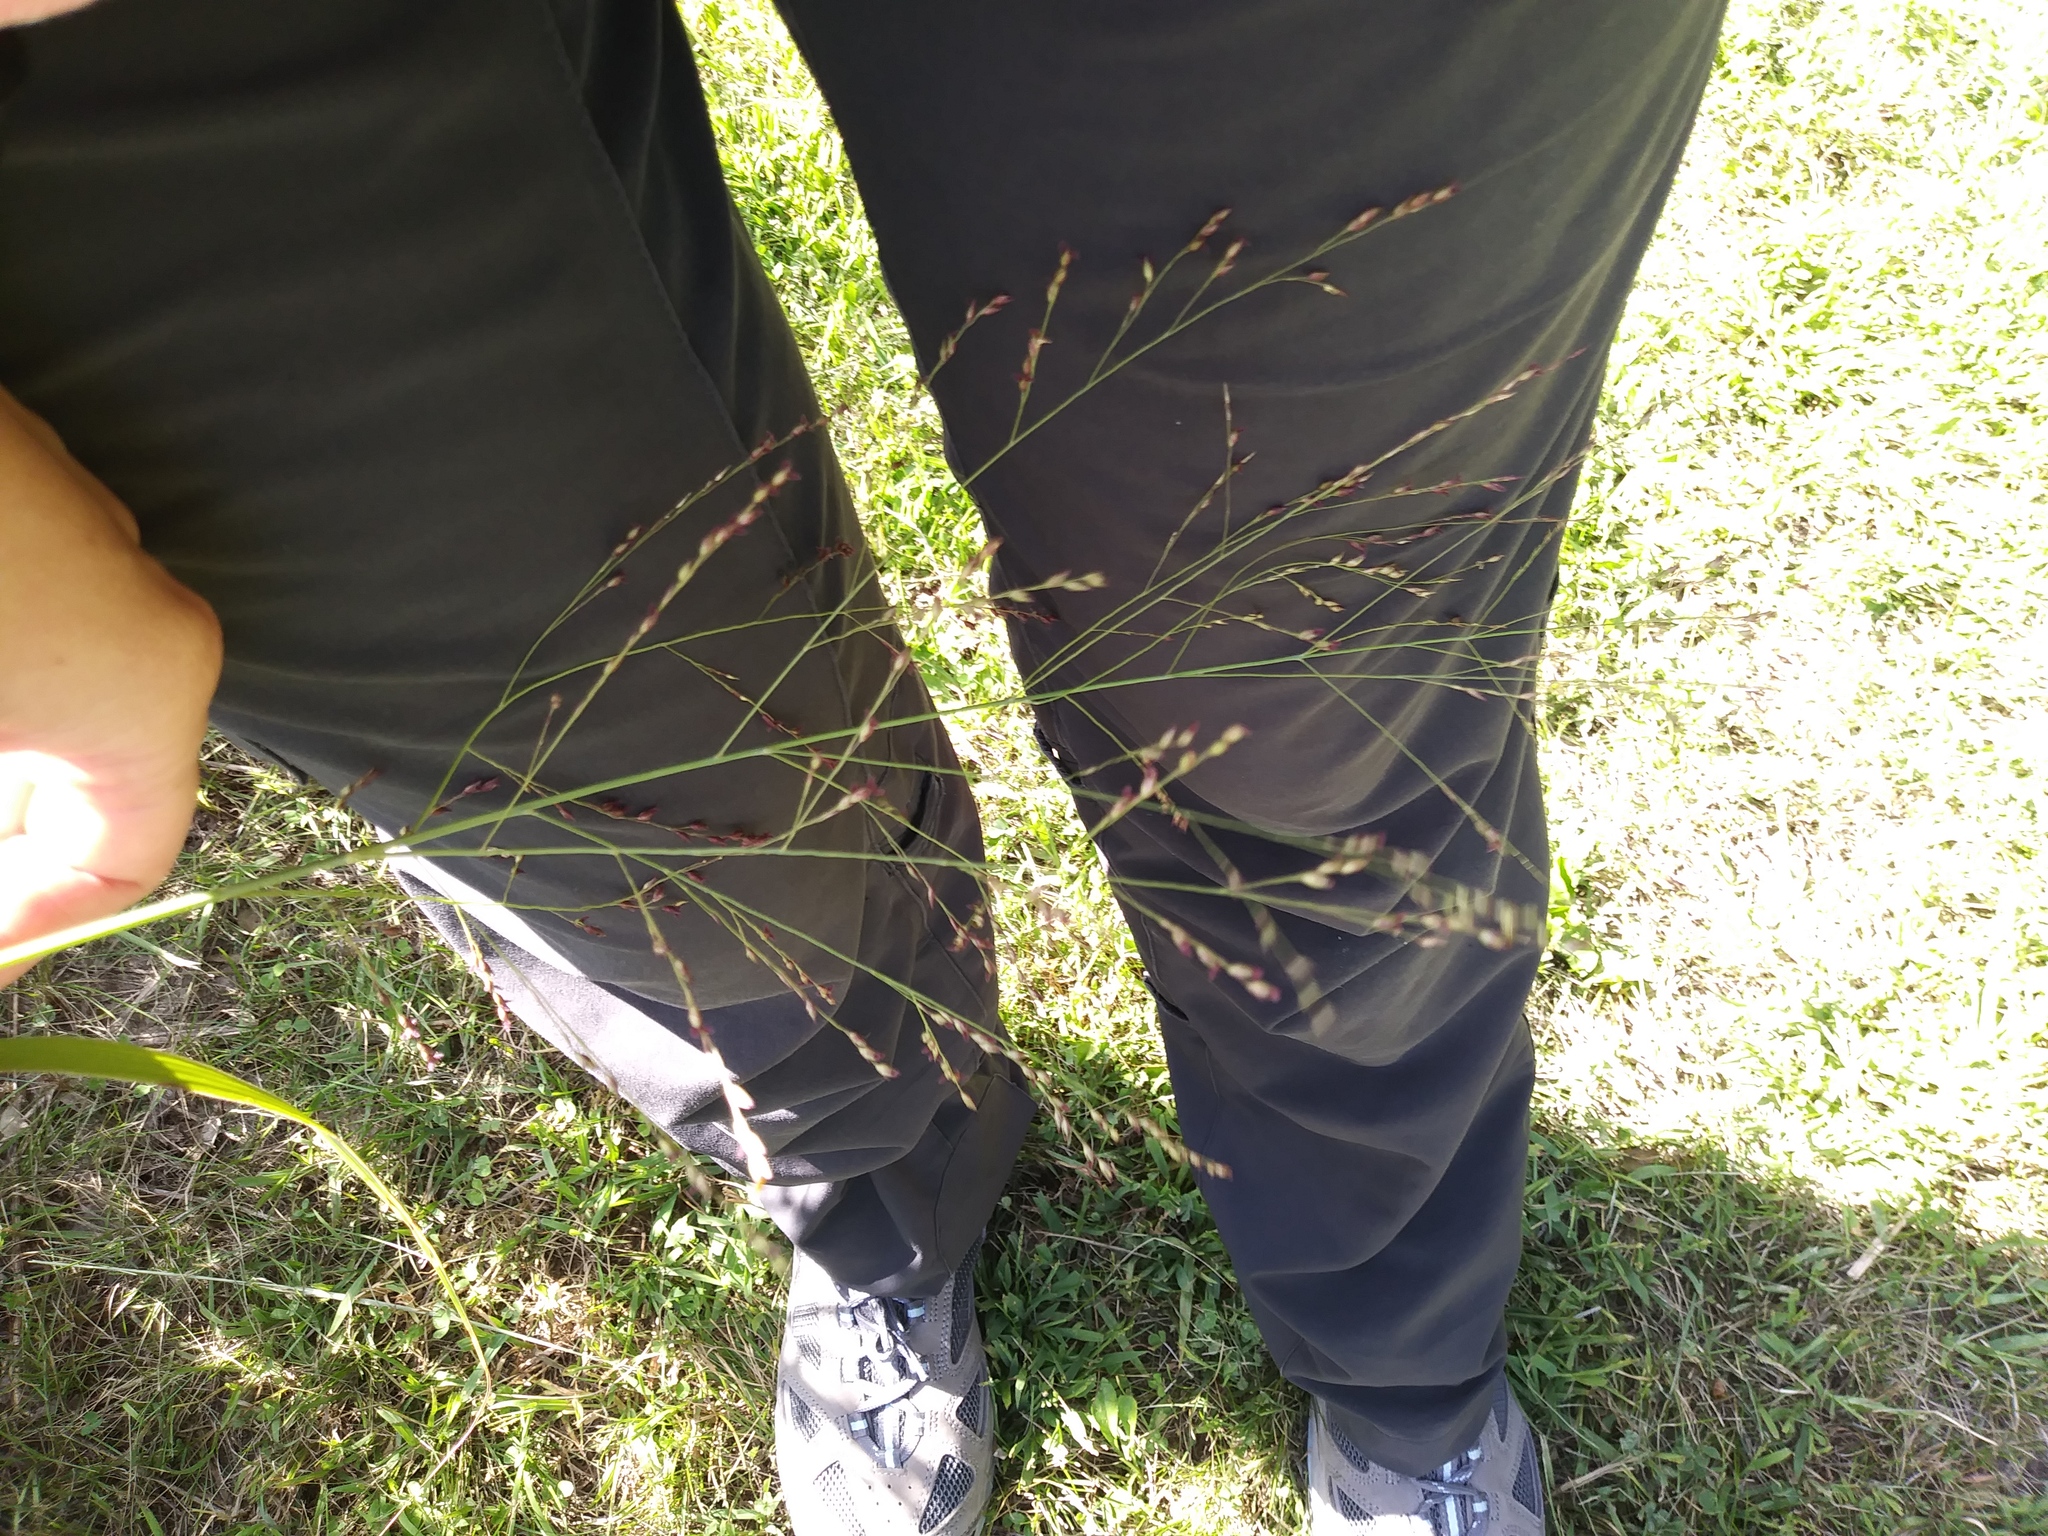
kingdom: Plantae
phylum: Tracheophyta
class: Liliopsida
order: Poales
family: Poaceae
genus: Panicum
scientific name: Panicum virgatum
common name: Switchgrass
